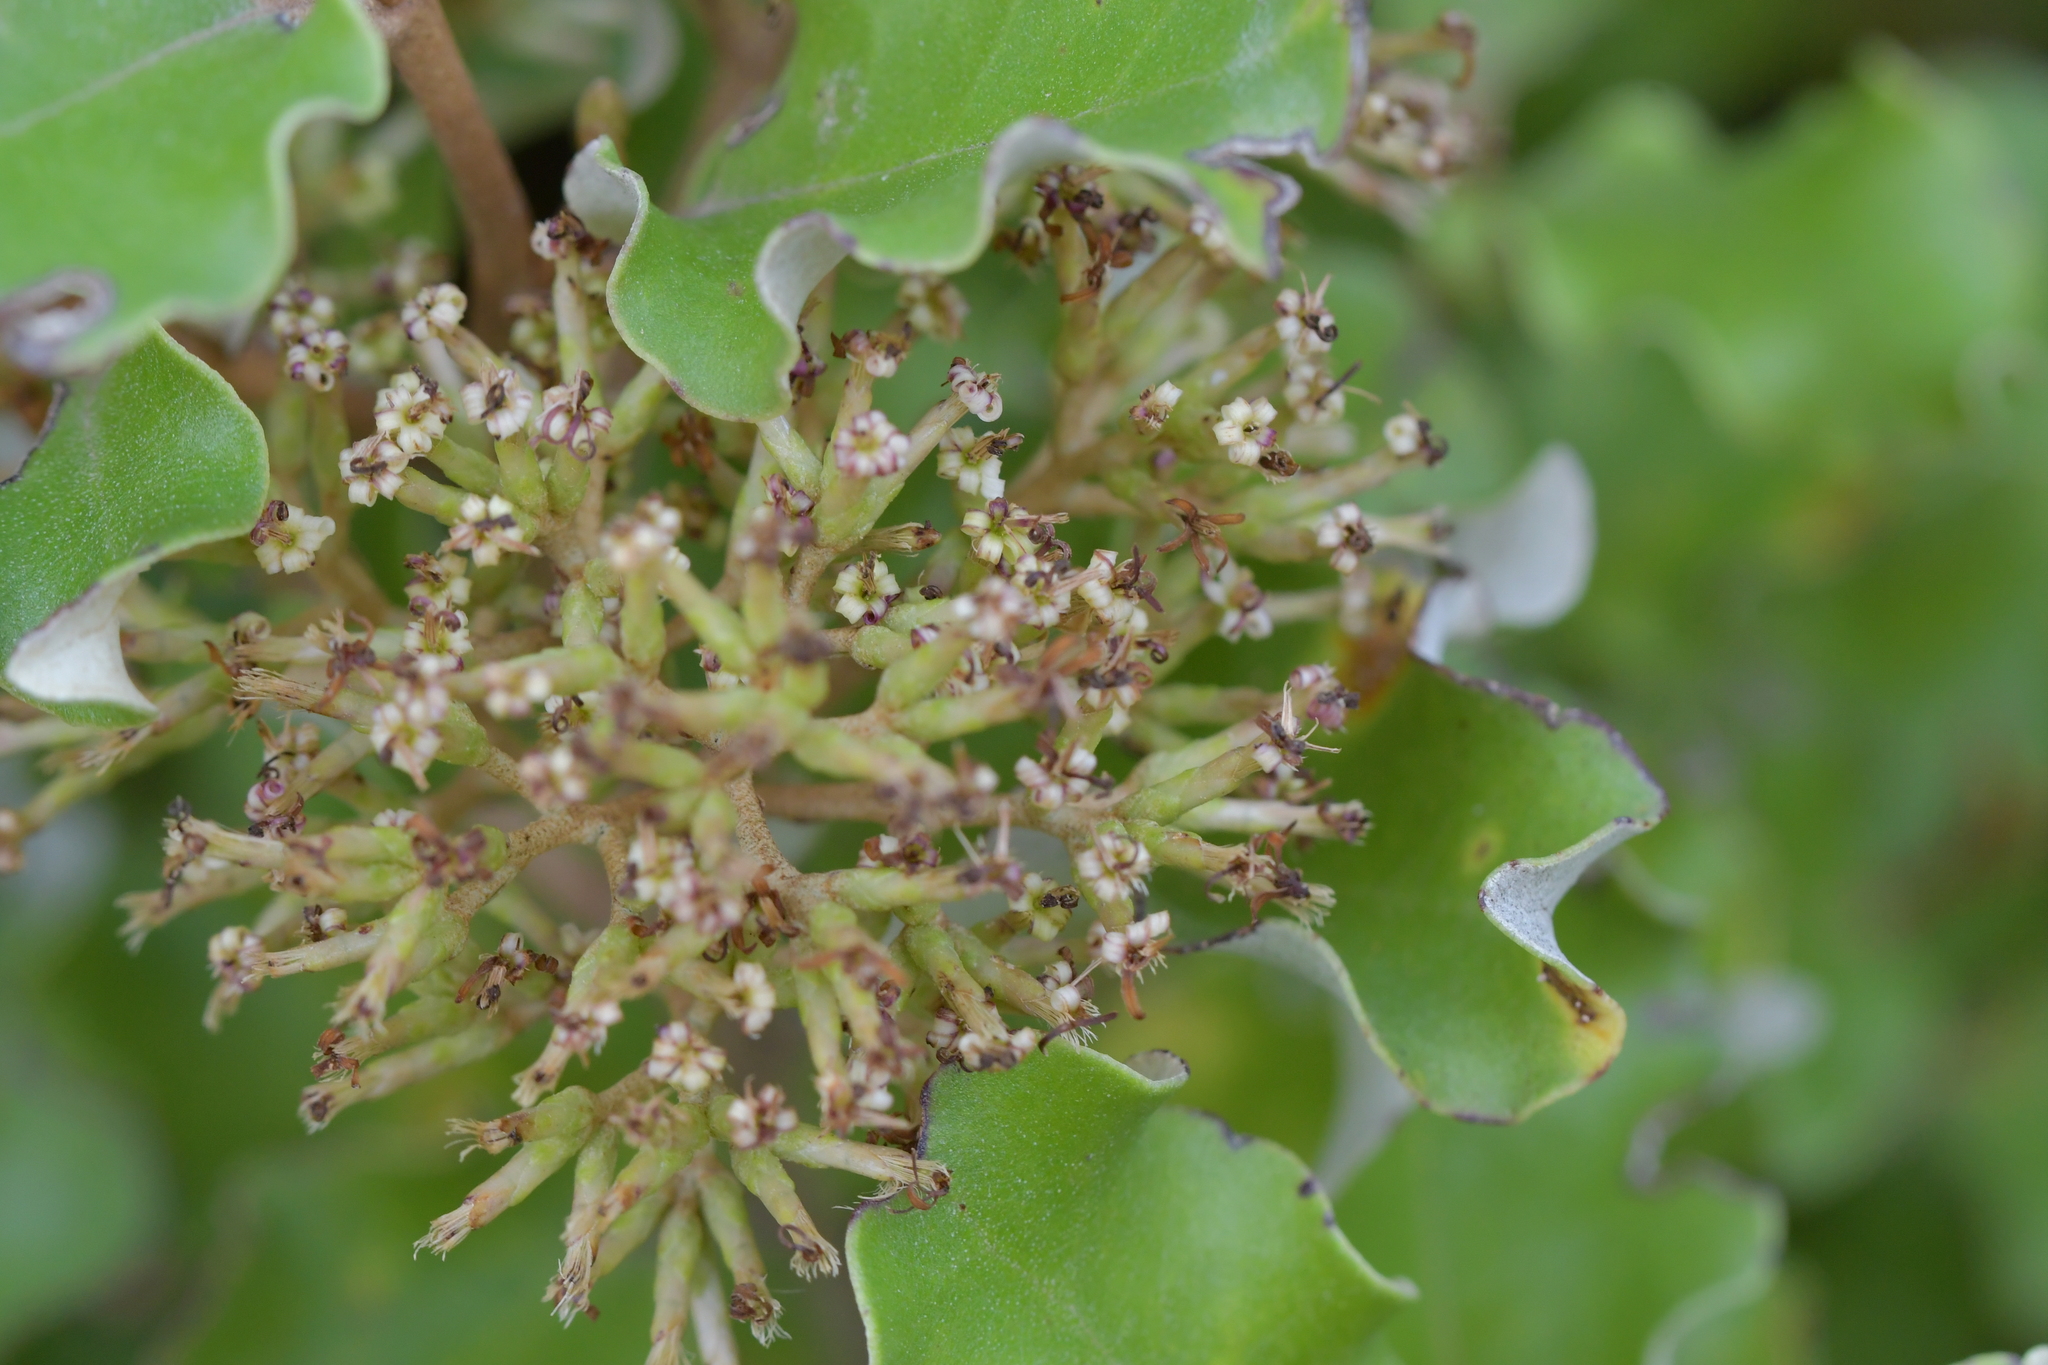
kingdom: Plantae
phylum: Tracheophyta
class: Magnoliopsida
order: Asterales
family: Asteraceae
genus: Olearia
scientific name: Olearia paniculata
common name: Akiraho
